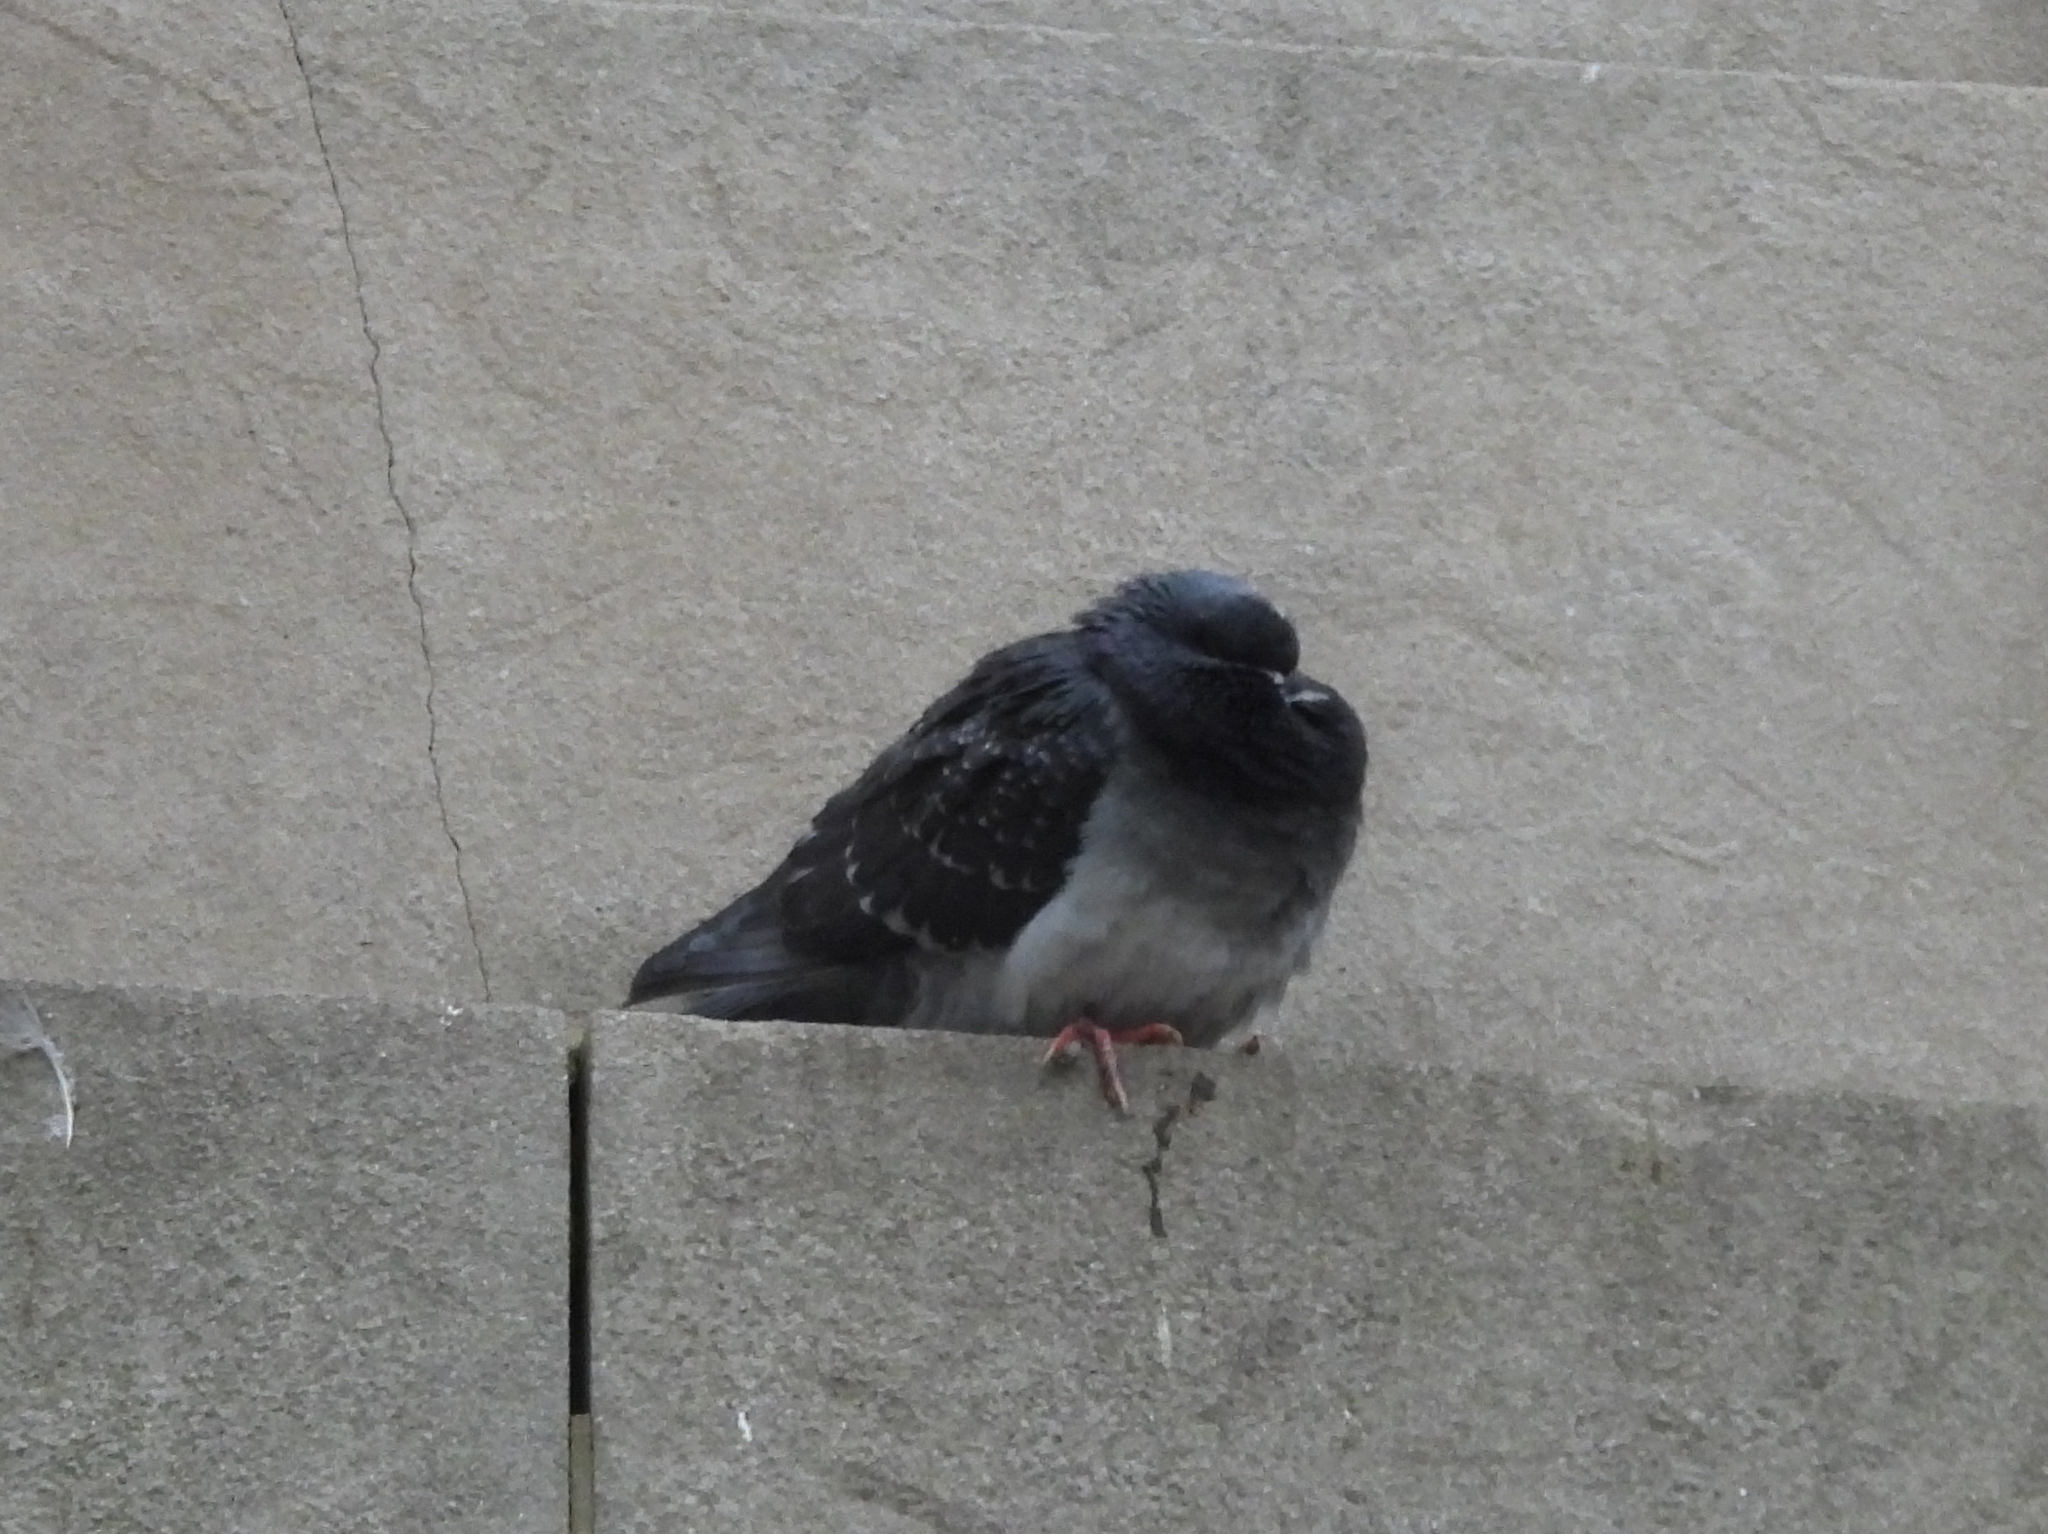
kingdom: Animalia
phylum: Chordata
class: Aves
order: Columbiformes
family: Columbidae
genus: Columba
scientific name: Columba livia
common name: Rock pigeon
